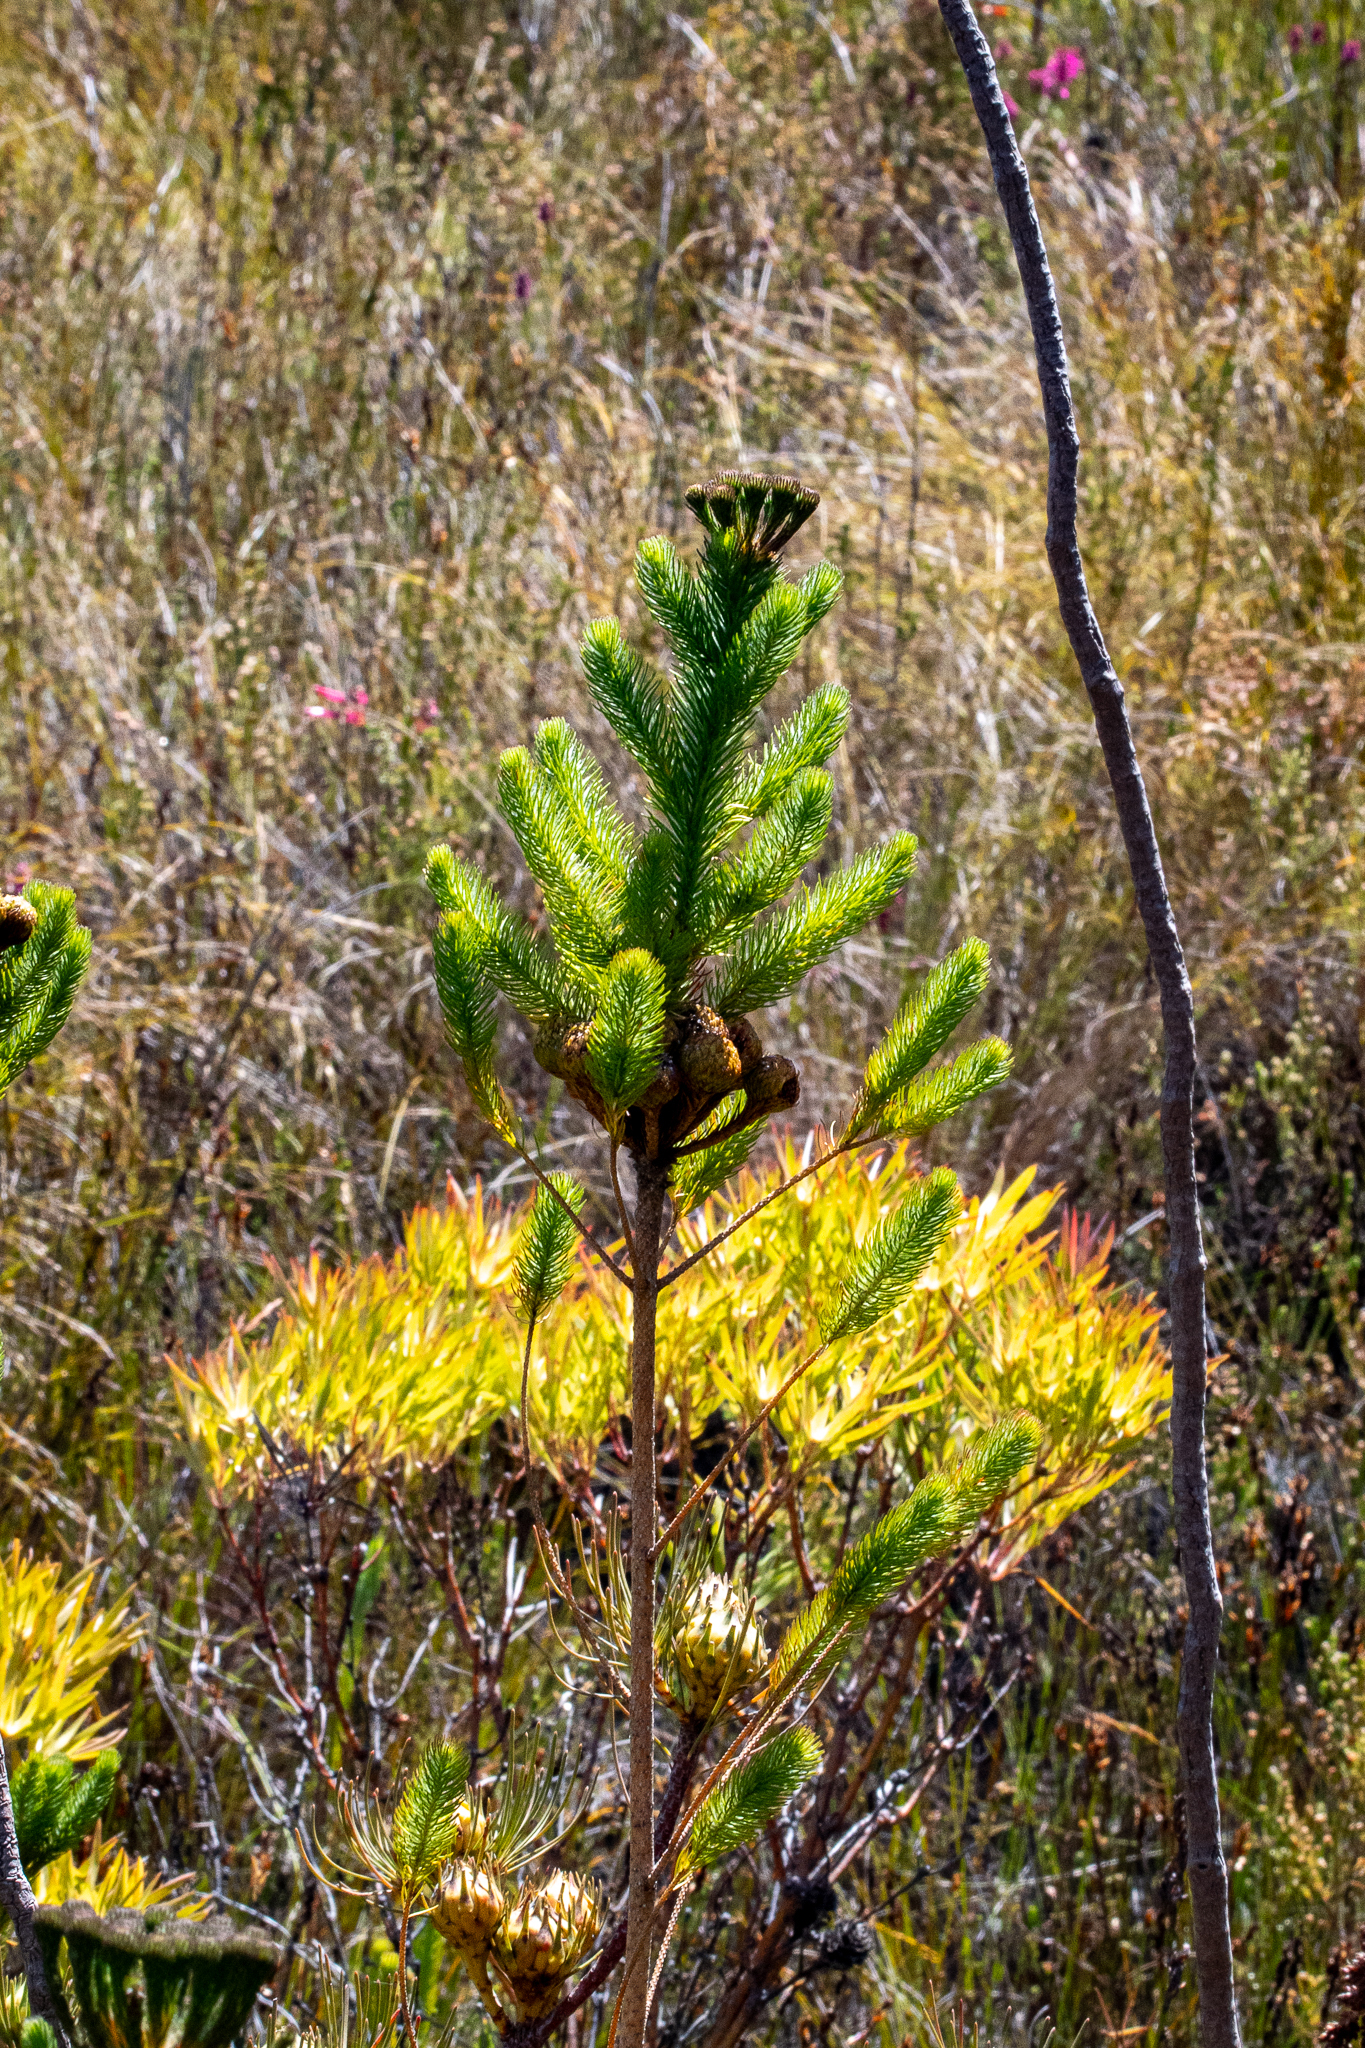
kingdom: Plantae
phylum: Tracheophyta
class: Magnoliopsida
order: Bruniales
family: Bruniaceae
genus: Berzelia
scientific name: Berzelia albiflora
